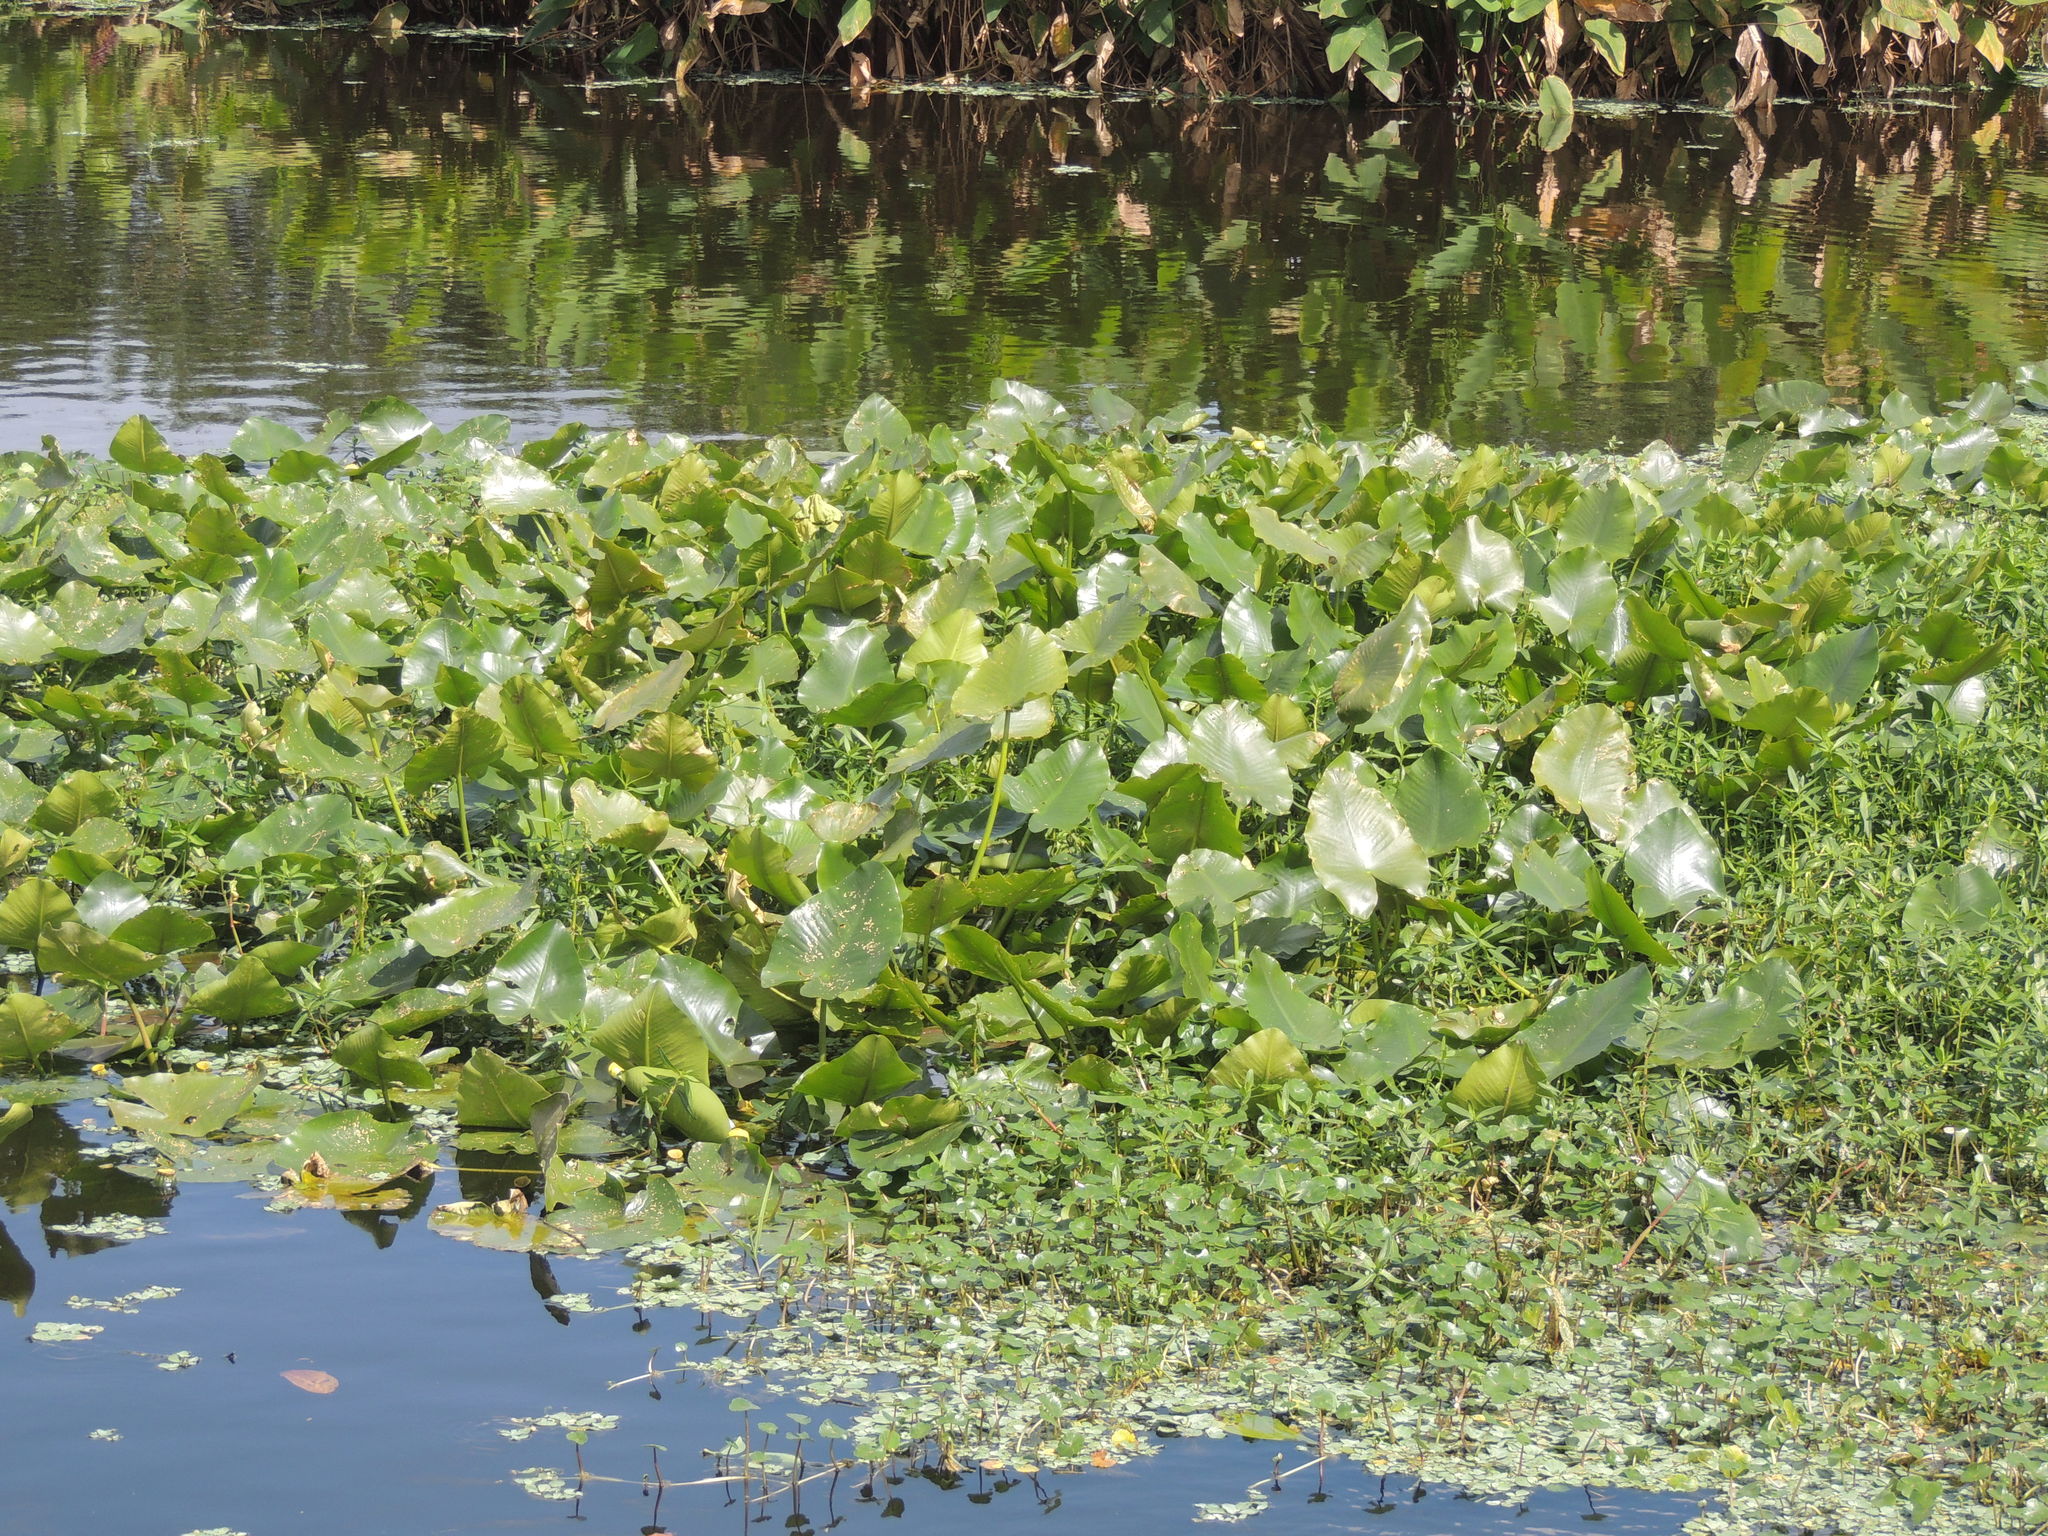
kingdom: Plantae
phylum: Tracheophyta
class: Magnoliopsida
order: Nymphaeales
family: Nymphaeaceae
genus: Nuphar
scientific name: Nuphar advena
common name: Spatter-dock
